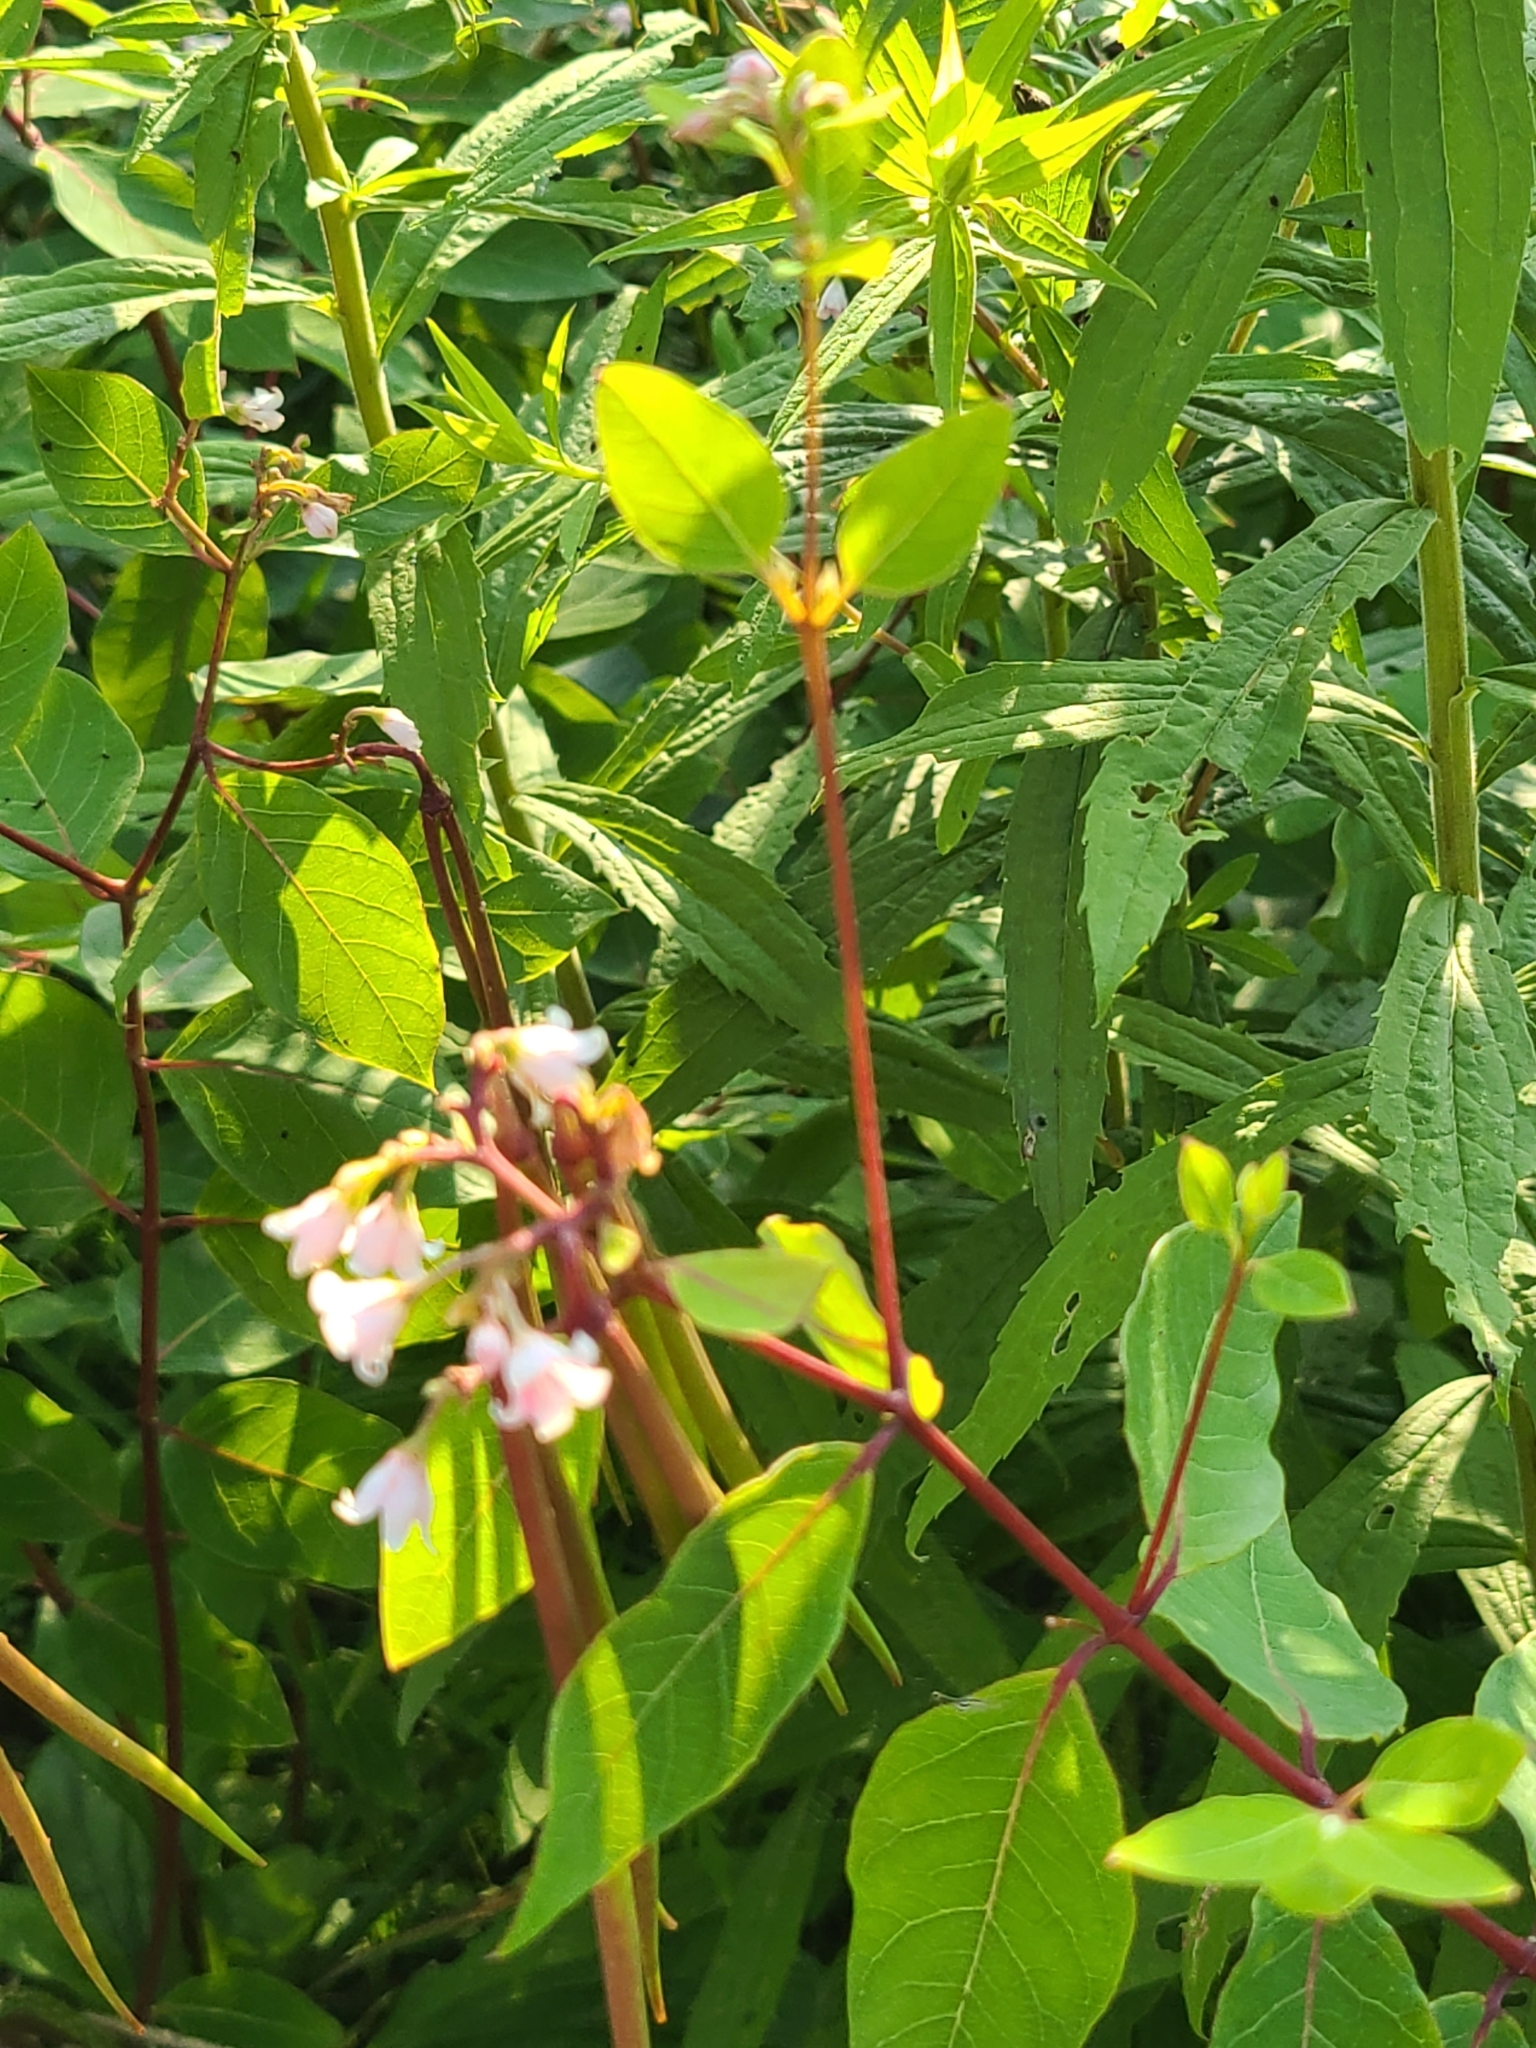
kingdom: Plantae
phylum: Tracheophyta
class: Magnoliopsida
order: Gentianales
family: Apocynaceae
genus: Apocynum
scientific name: Apocynum androsaemifolium
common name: Spreading dogbane
